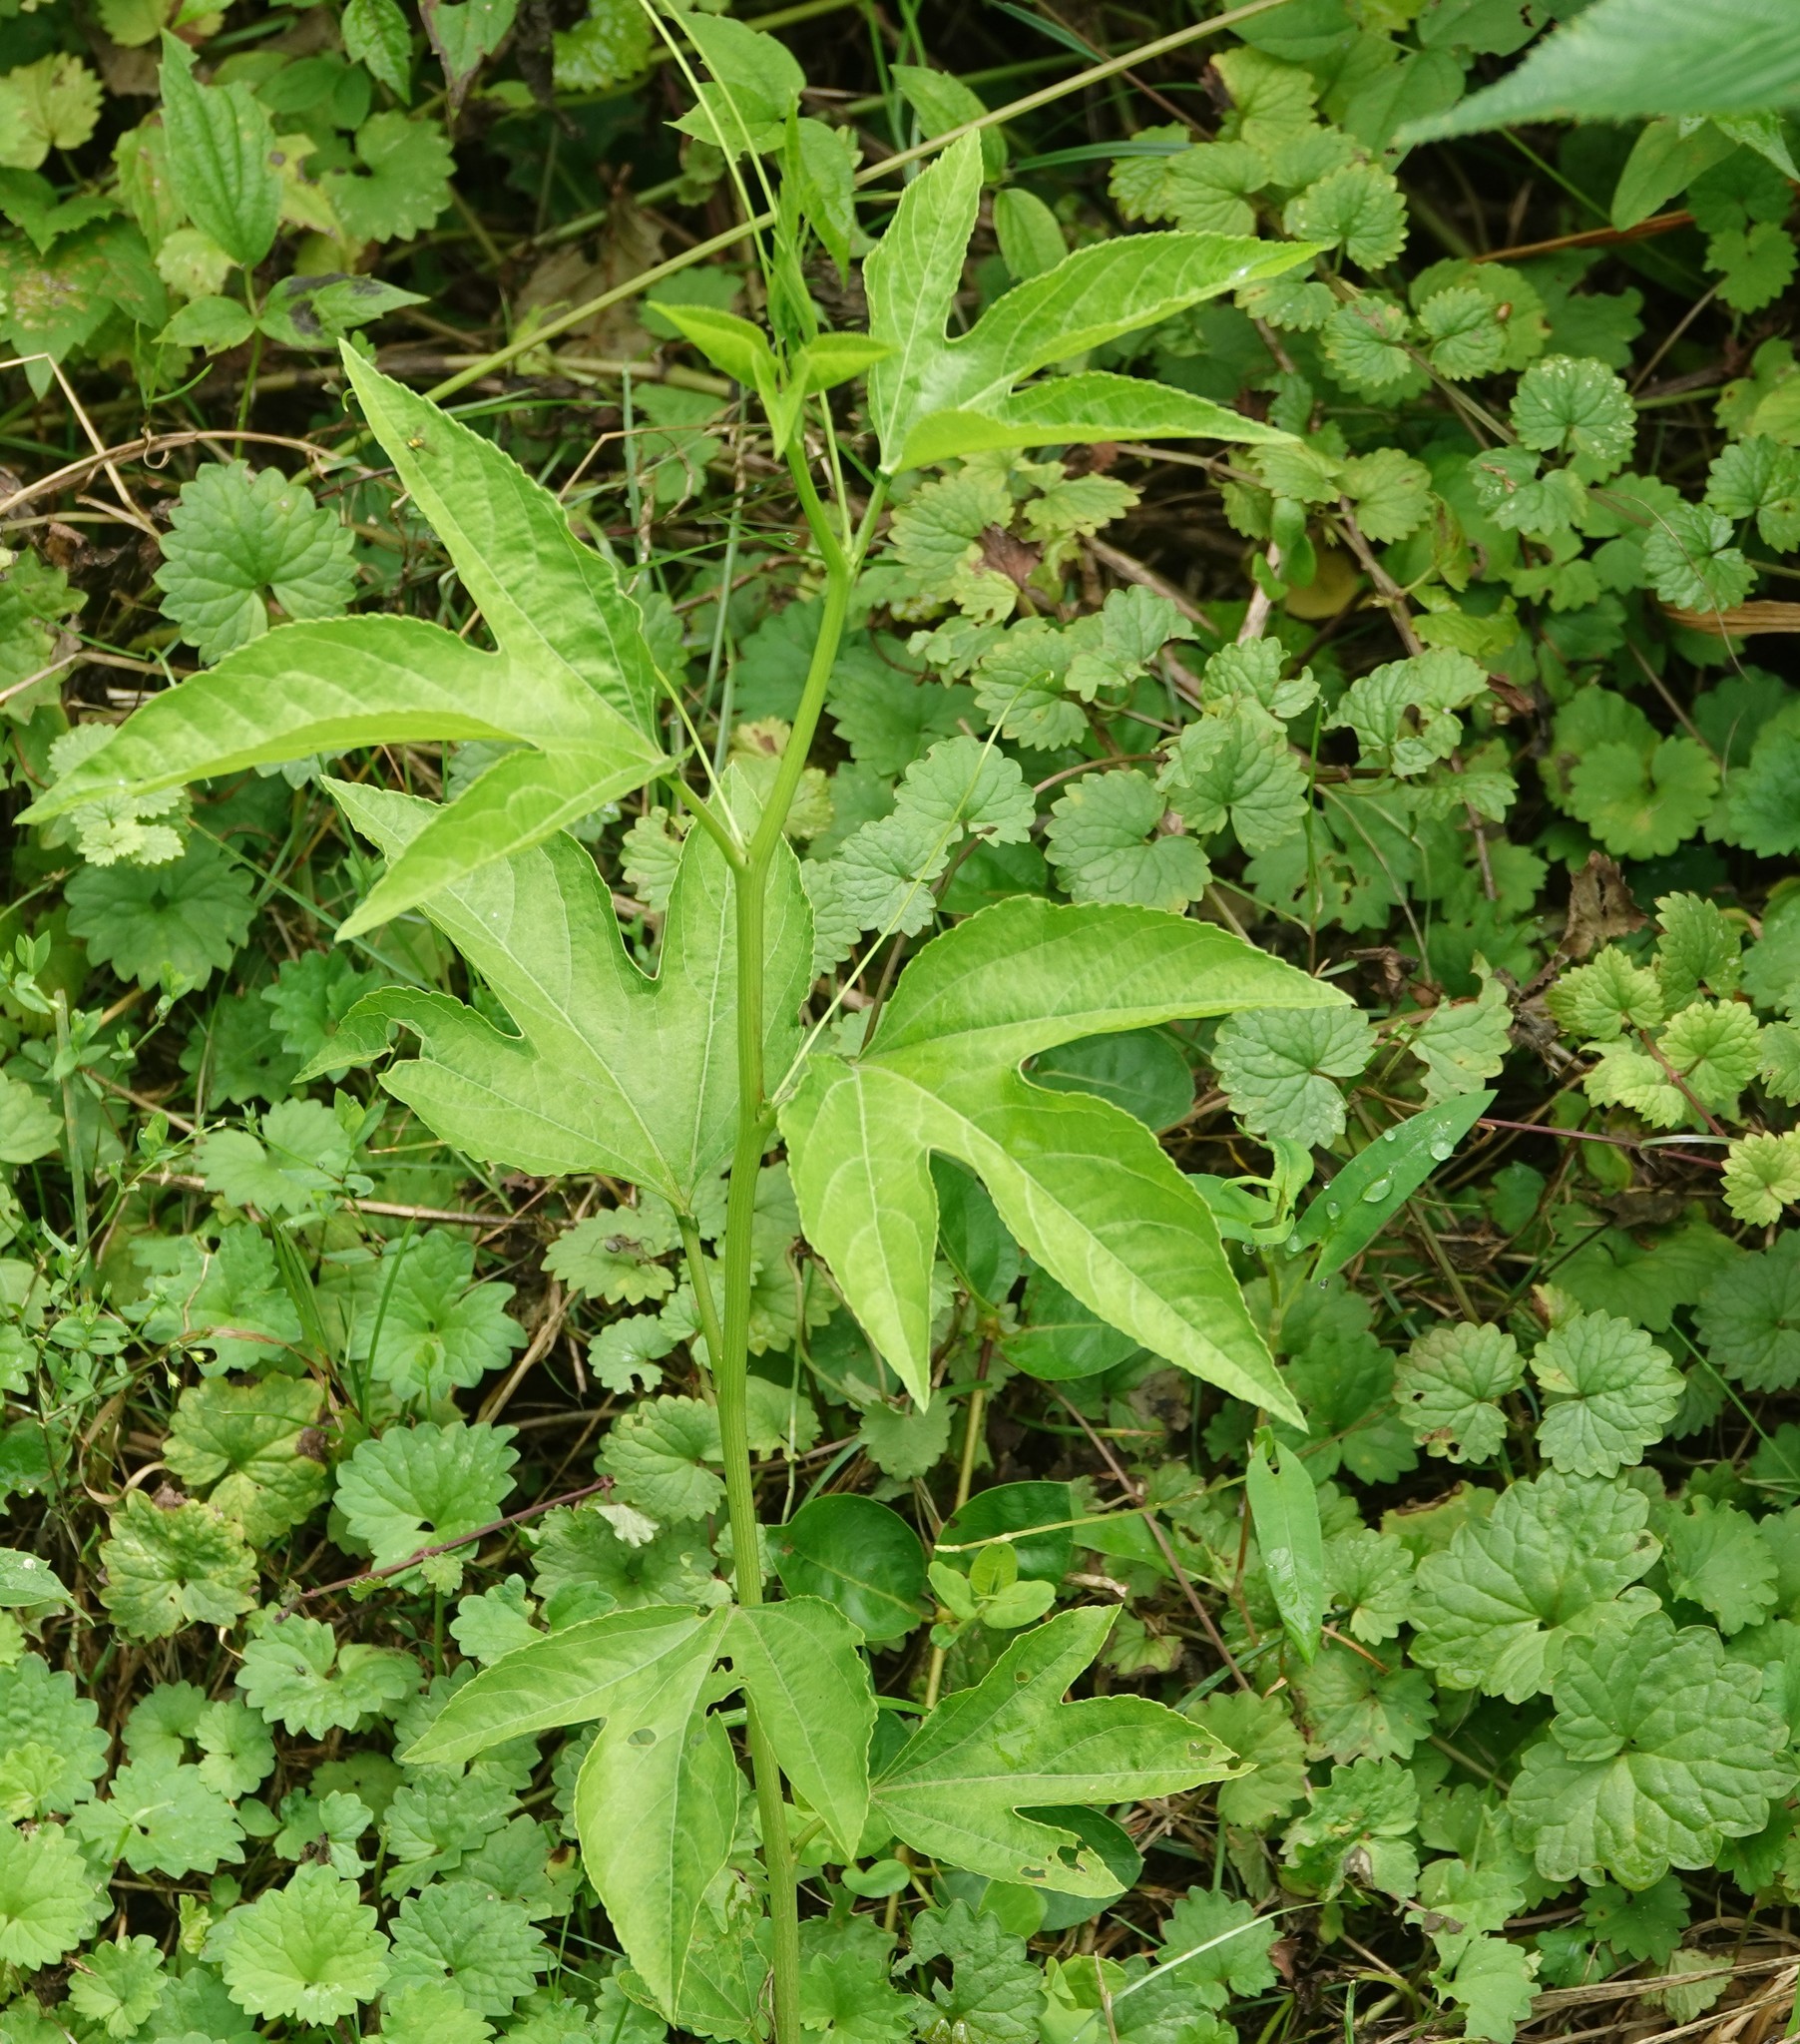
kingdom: Plantae
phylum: Tracheophyta
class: Magnoliopsida
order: Malpighiales
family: Passifloraceae
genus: Passiflora
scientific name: Passiflora incarnata
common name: Apricot-vine
